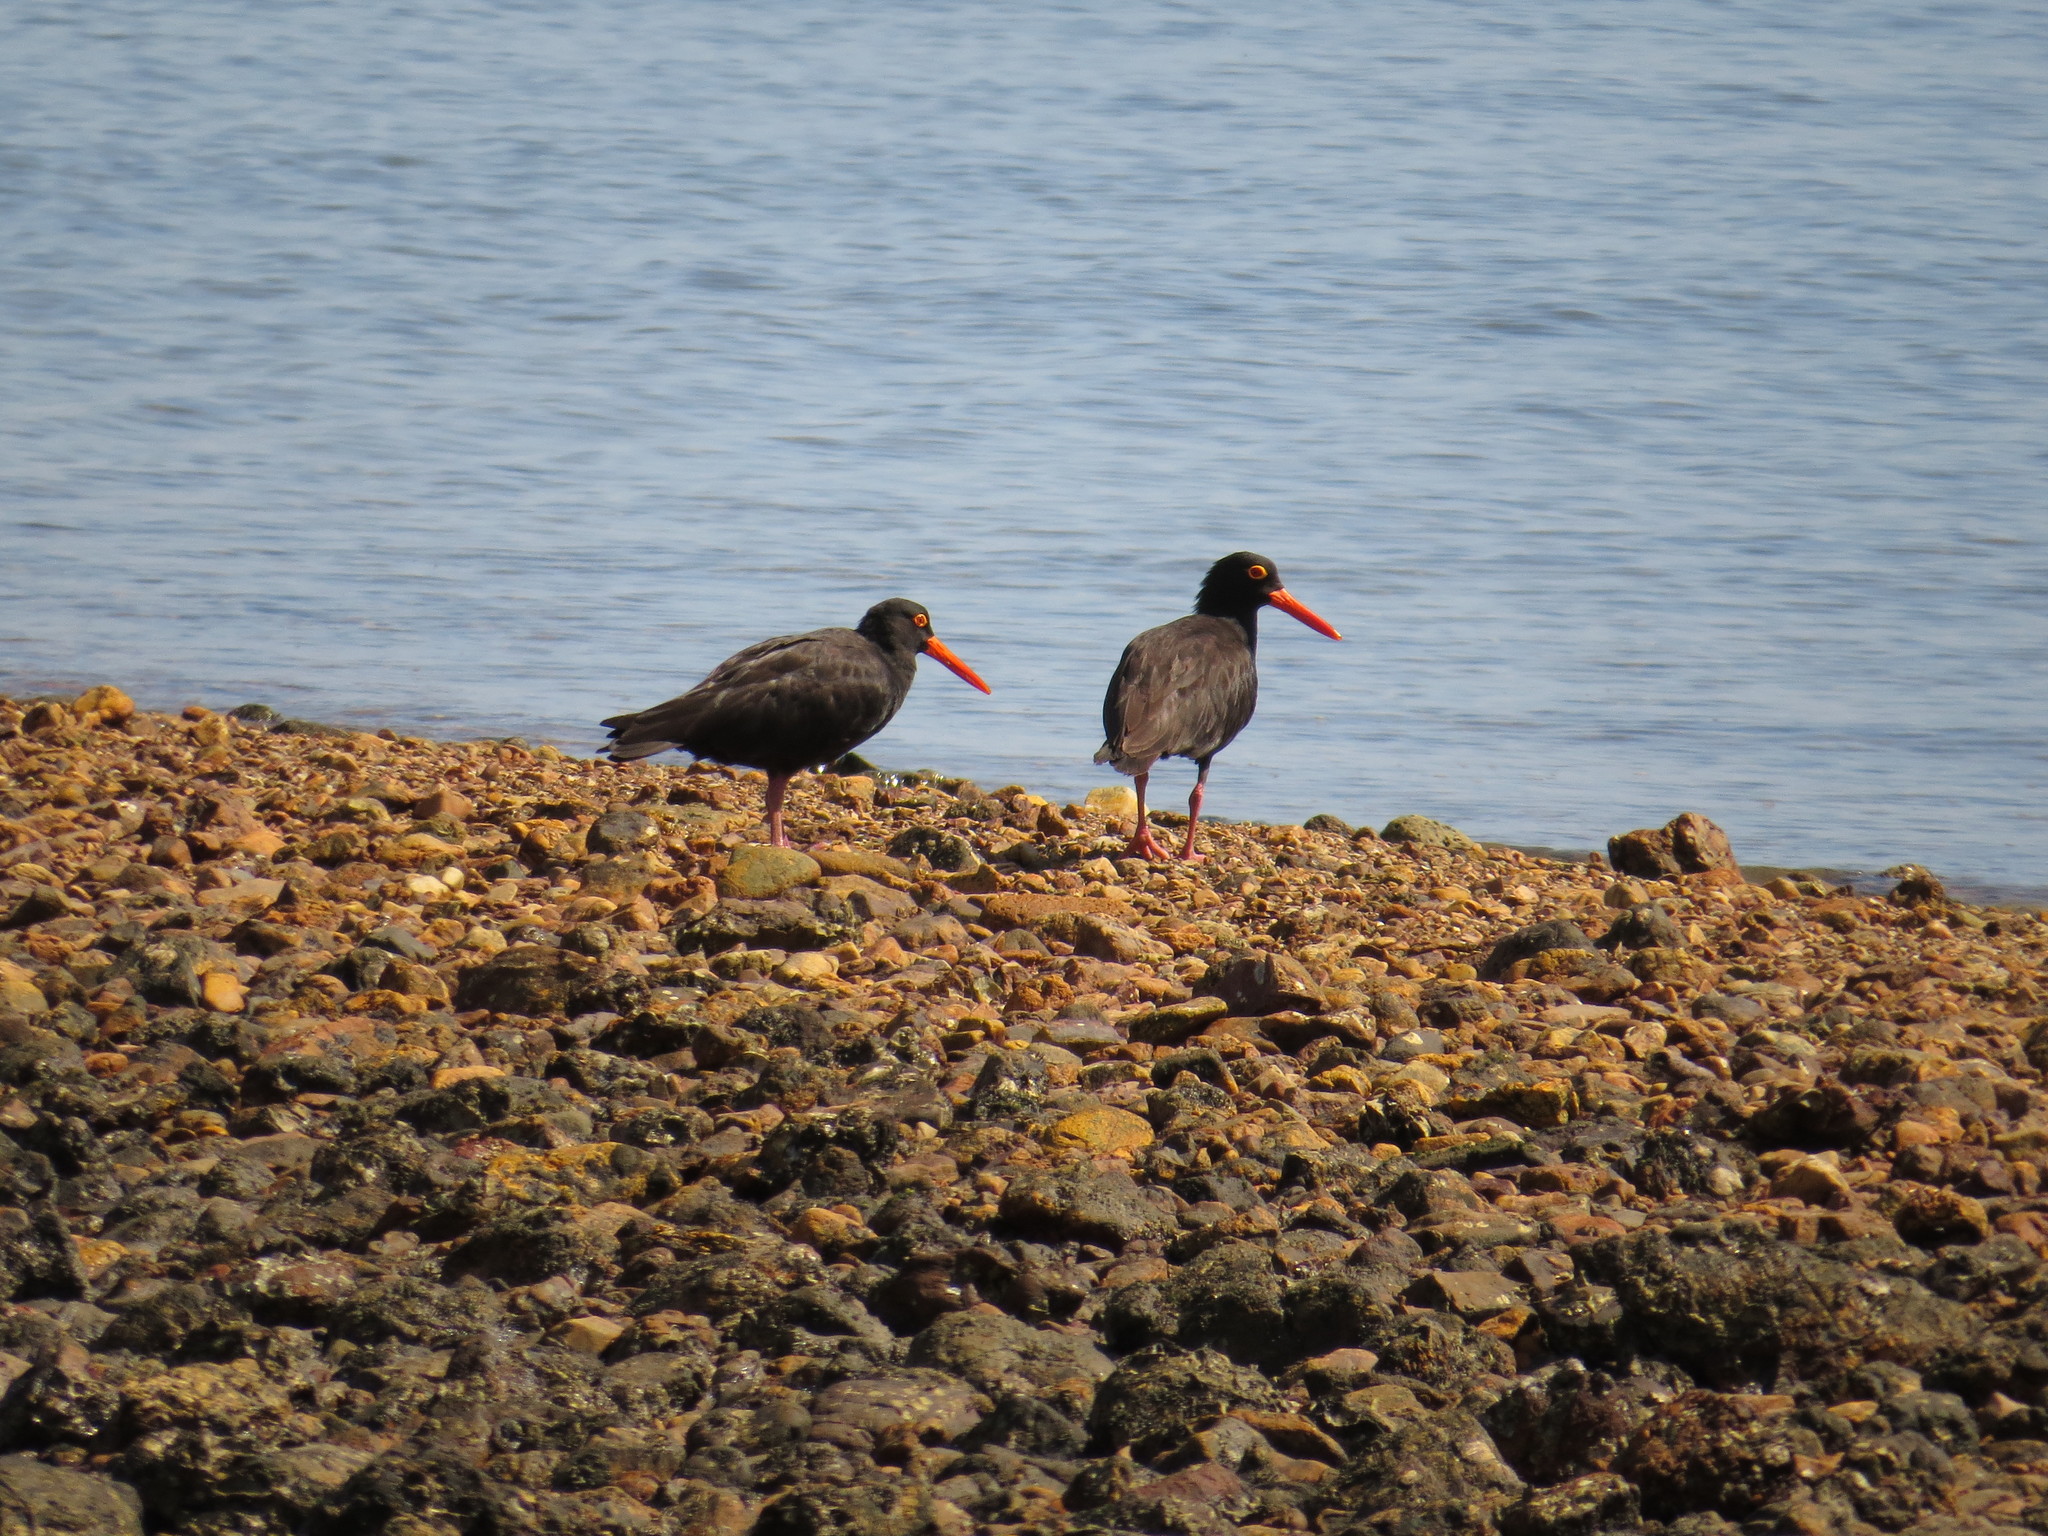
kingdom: Animalia
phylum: Chordata
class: Aves
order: Charadriiformes
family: Haematopodidae
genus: Haematopus
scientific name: Haematopus fuliginosus
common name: Sooty oystercatcher
